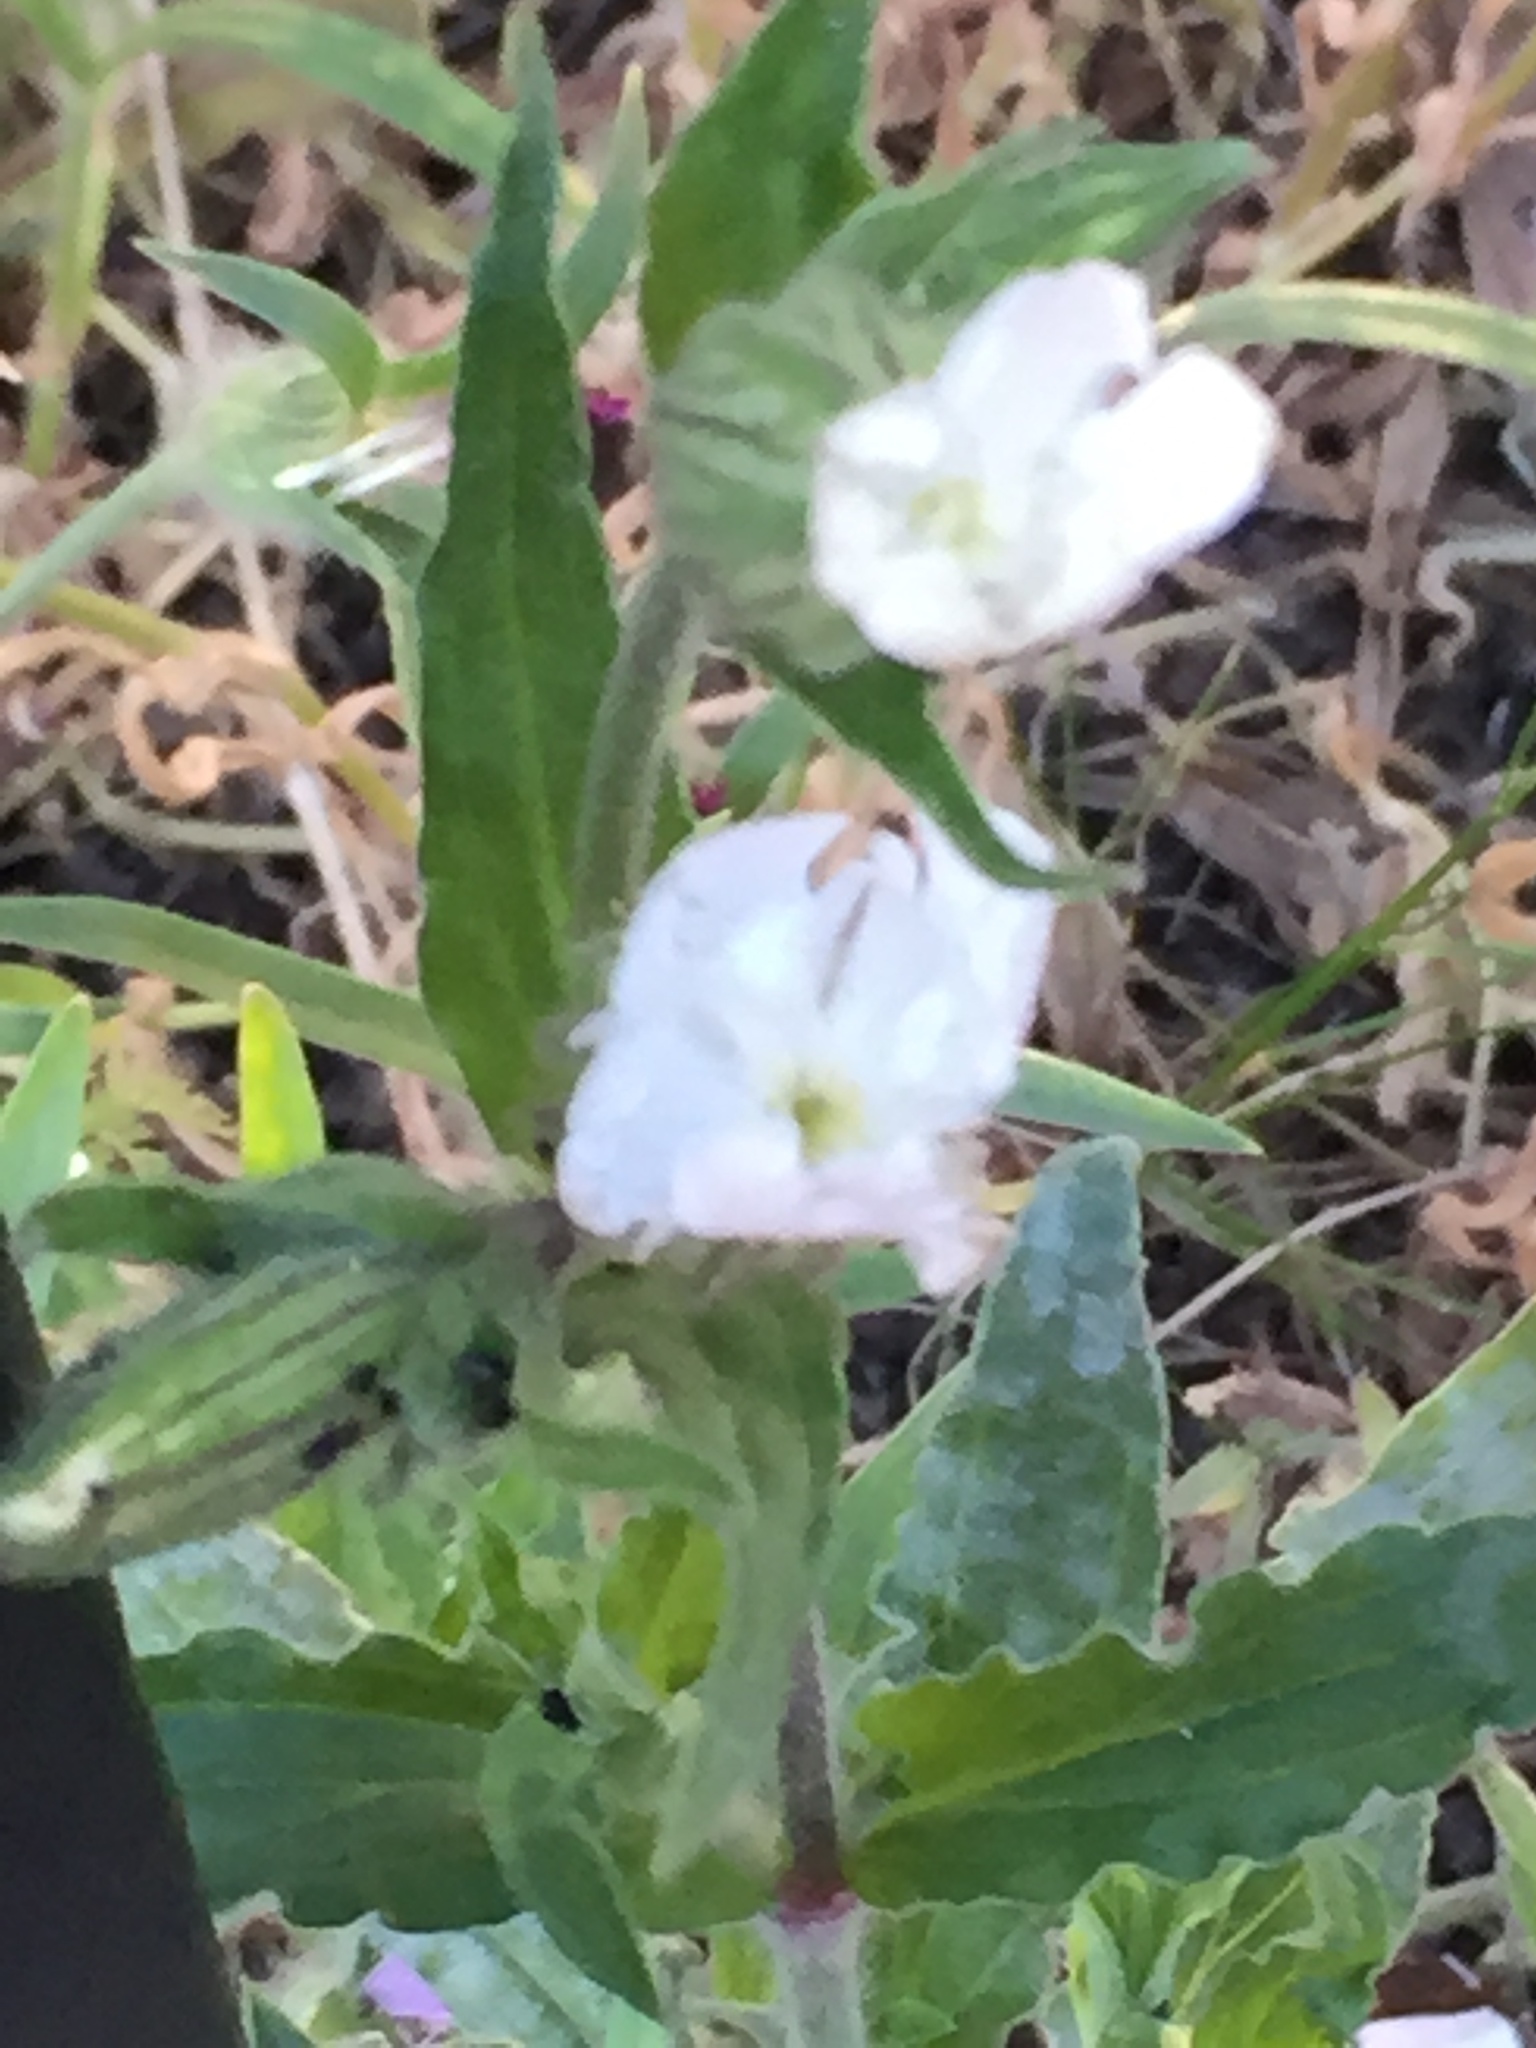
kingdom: Plantae
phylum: Tracheophyta
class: Magnoliopsida
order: Caryophyllales
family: Caryophyllaceae
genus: Silene
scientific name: Silene latifolia
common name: White campion
